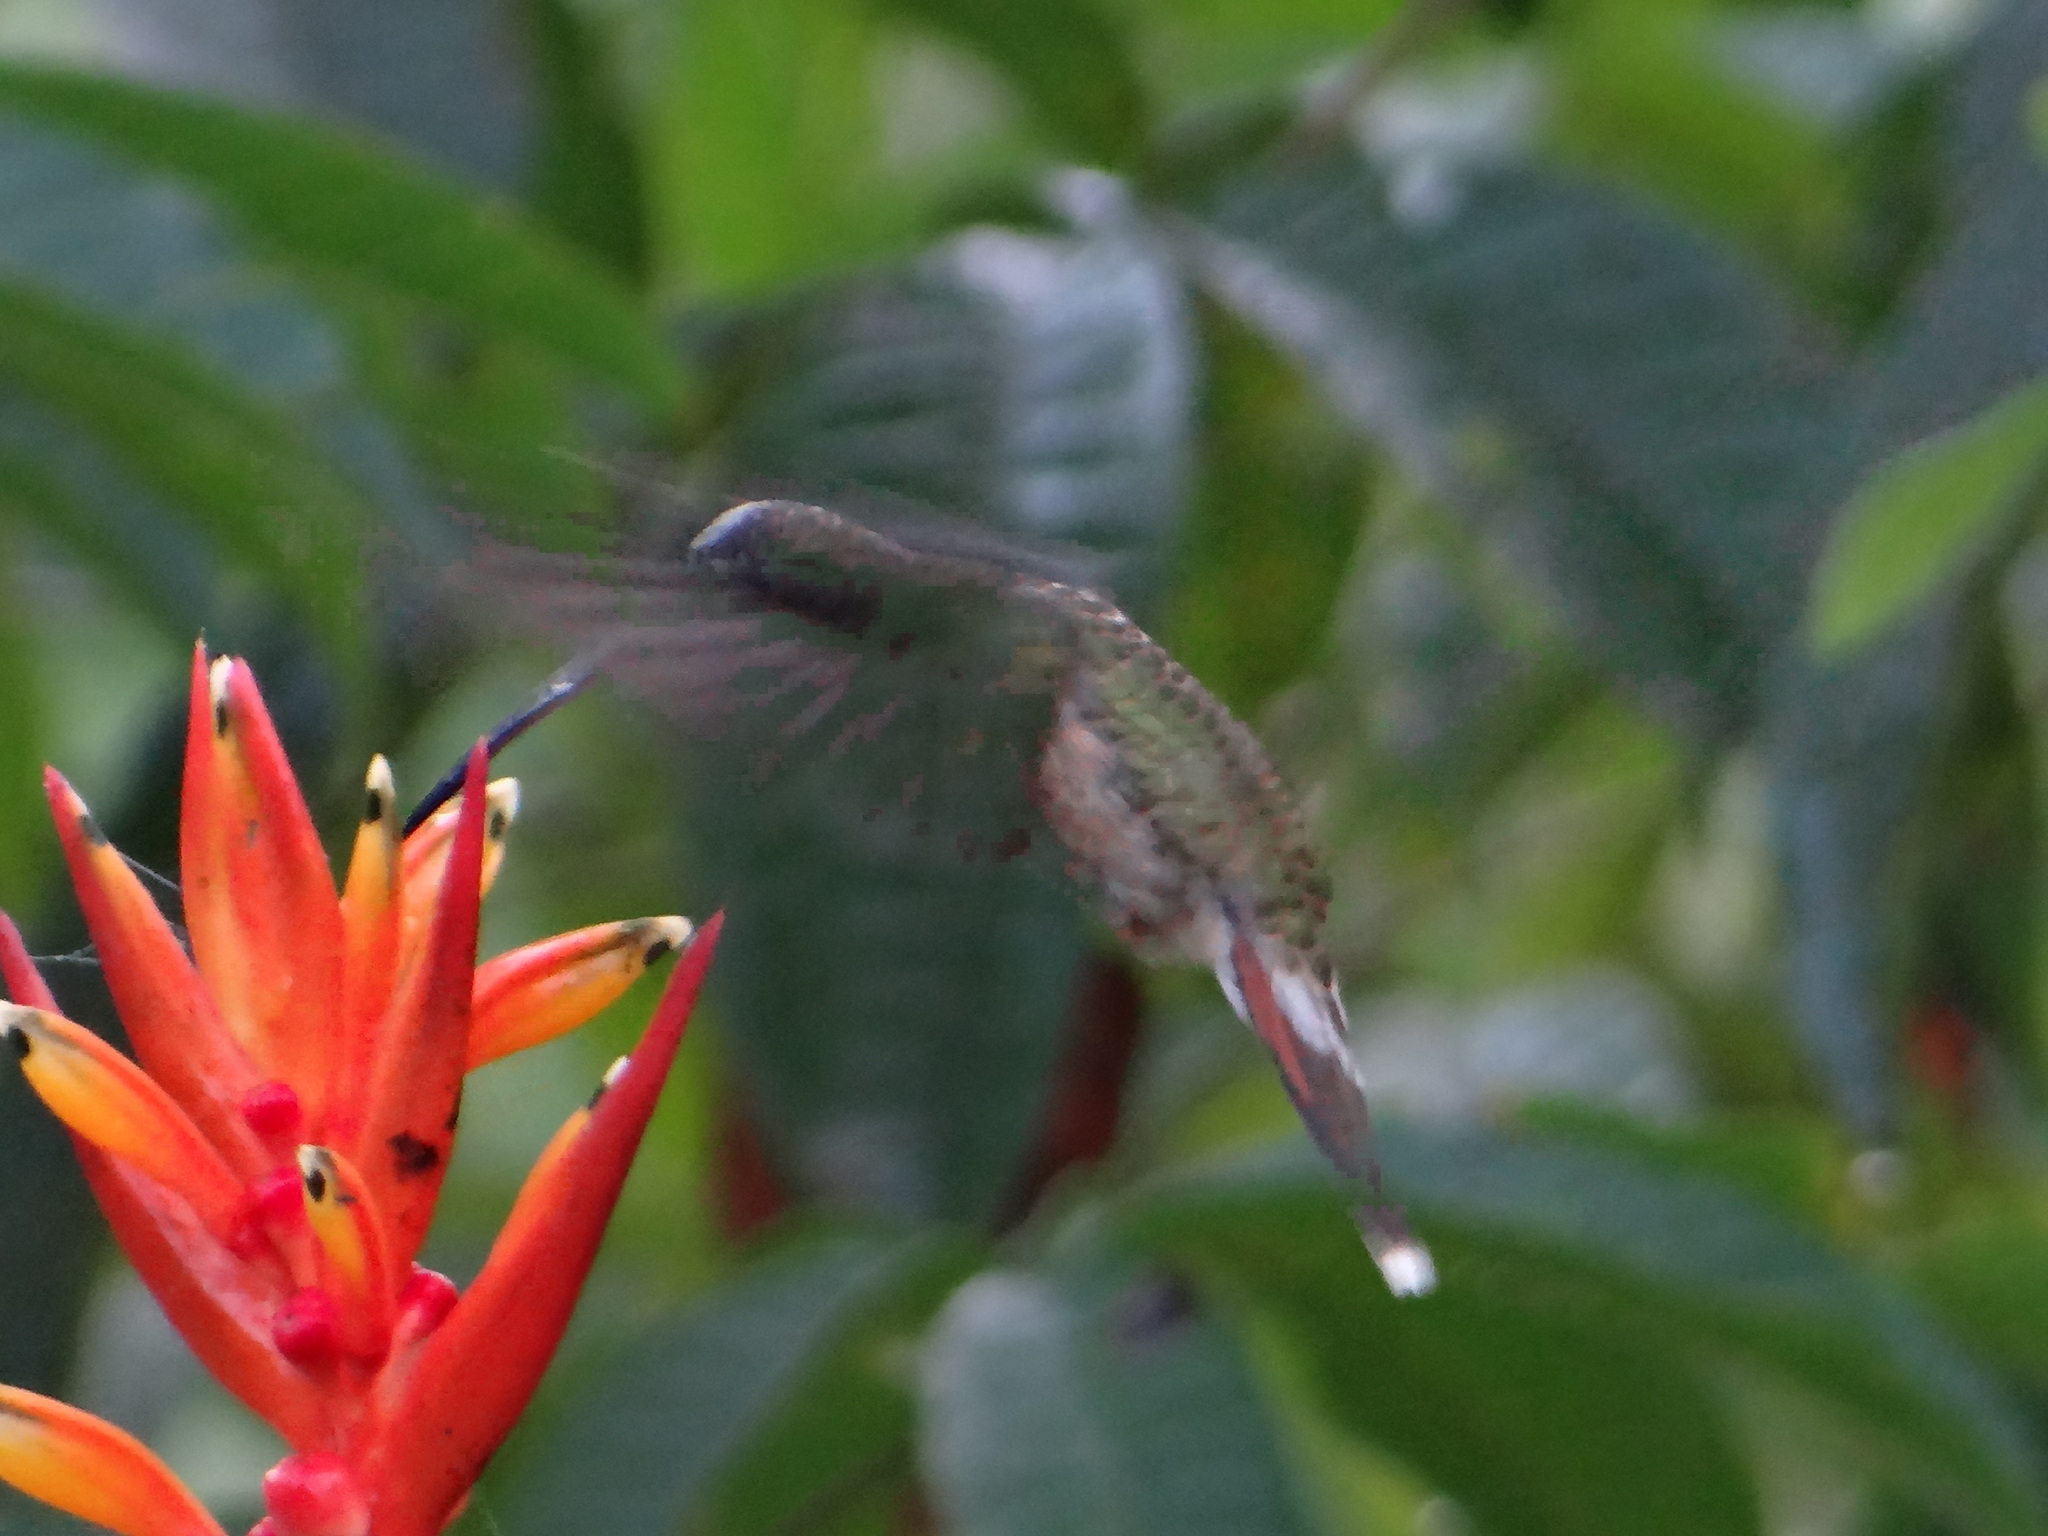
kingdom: Animalia
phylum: Chordata
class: Aves
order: Apodiformes
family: Trochilidae
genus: Glaucis
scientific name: Glaucis hirsutus
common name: Rufous-breasted hermit
